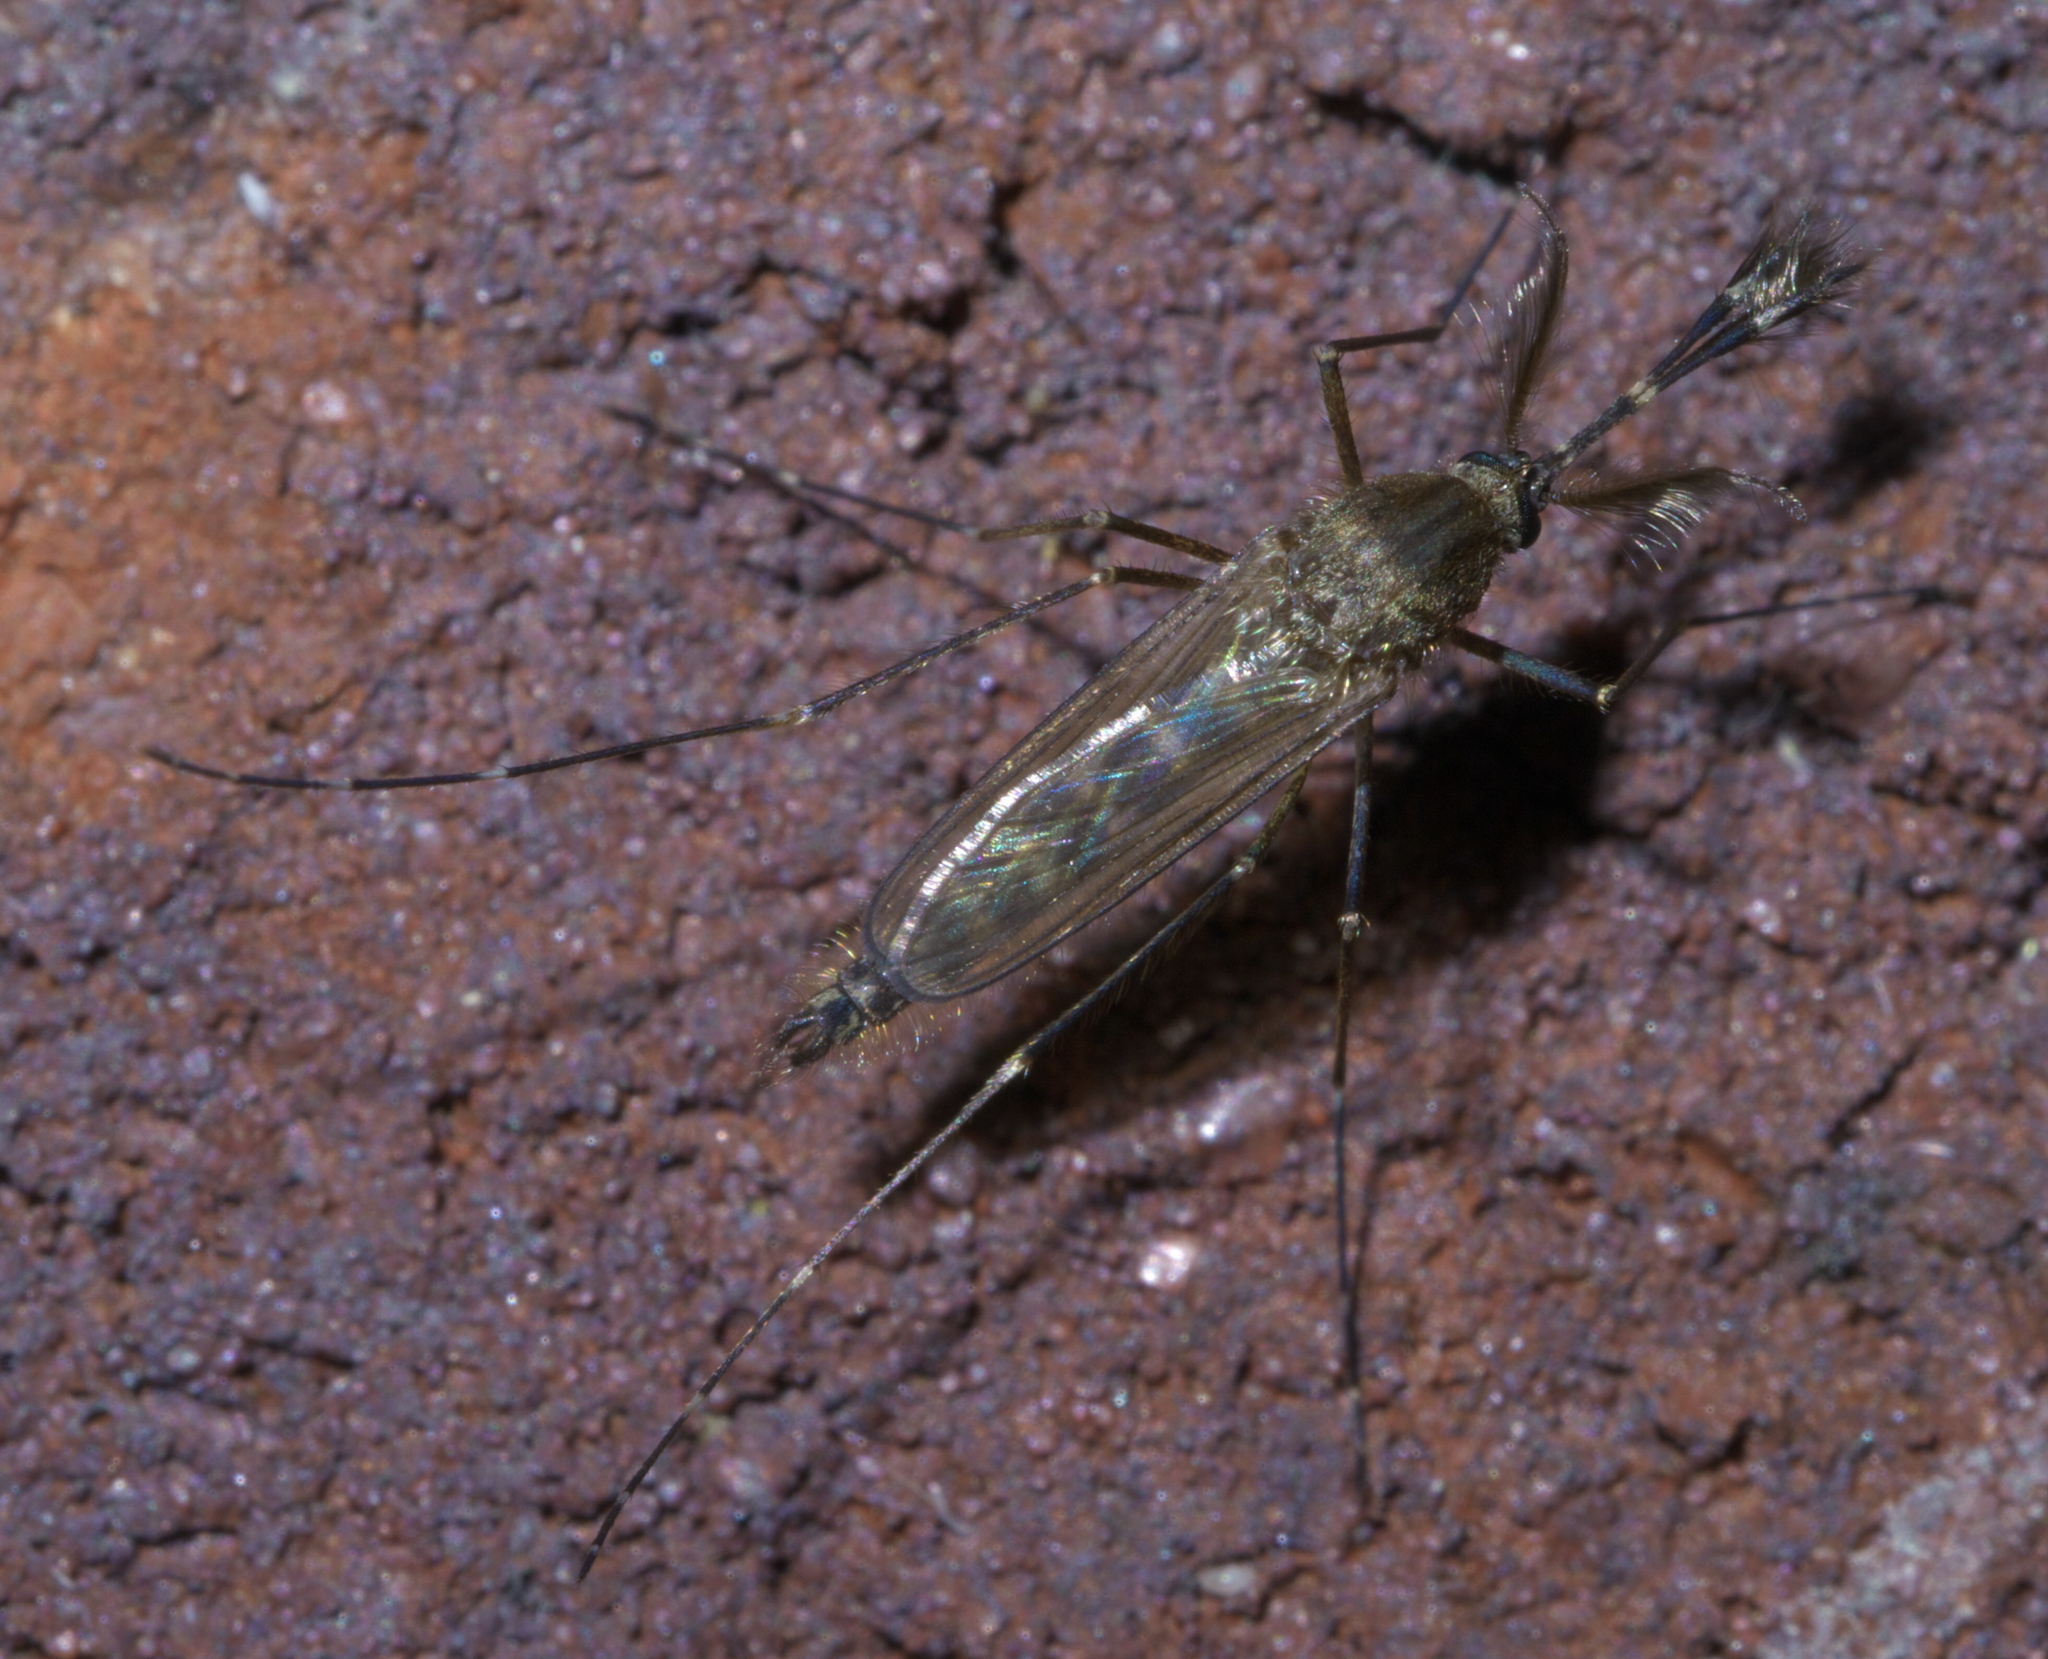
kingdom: Animalia
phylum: Arthropoda
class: Insecta
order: Diptera
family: Culicidae
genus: Aedes
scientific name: Aedes vexans
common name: Inland floodwater mosquito
